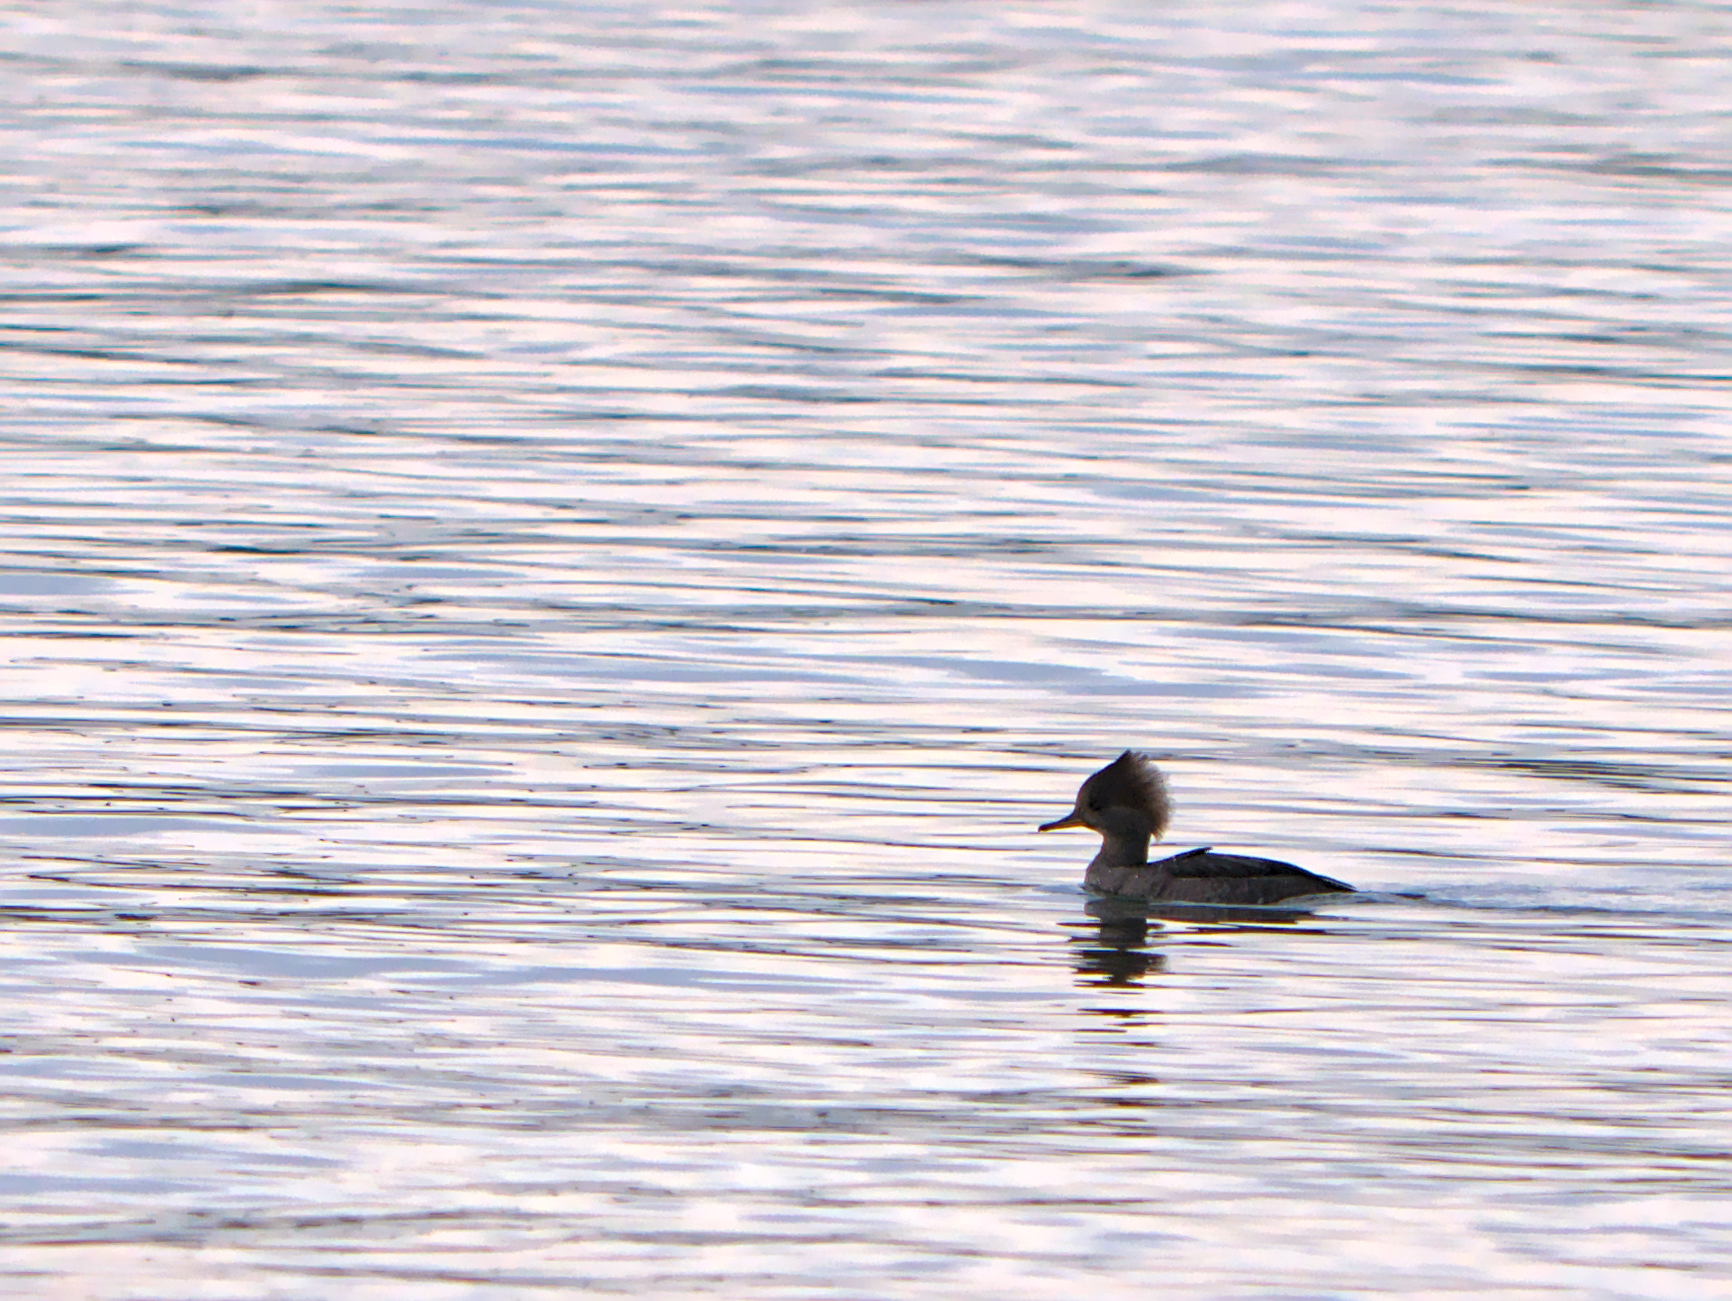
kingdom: Animalia
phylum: Chordata
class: Aves
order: Anseriformes
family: Anatidae
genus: Lophodytes
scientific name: Lophodytes cucullatus
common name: Hooded merganser
